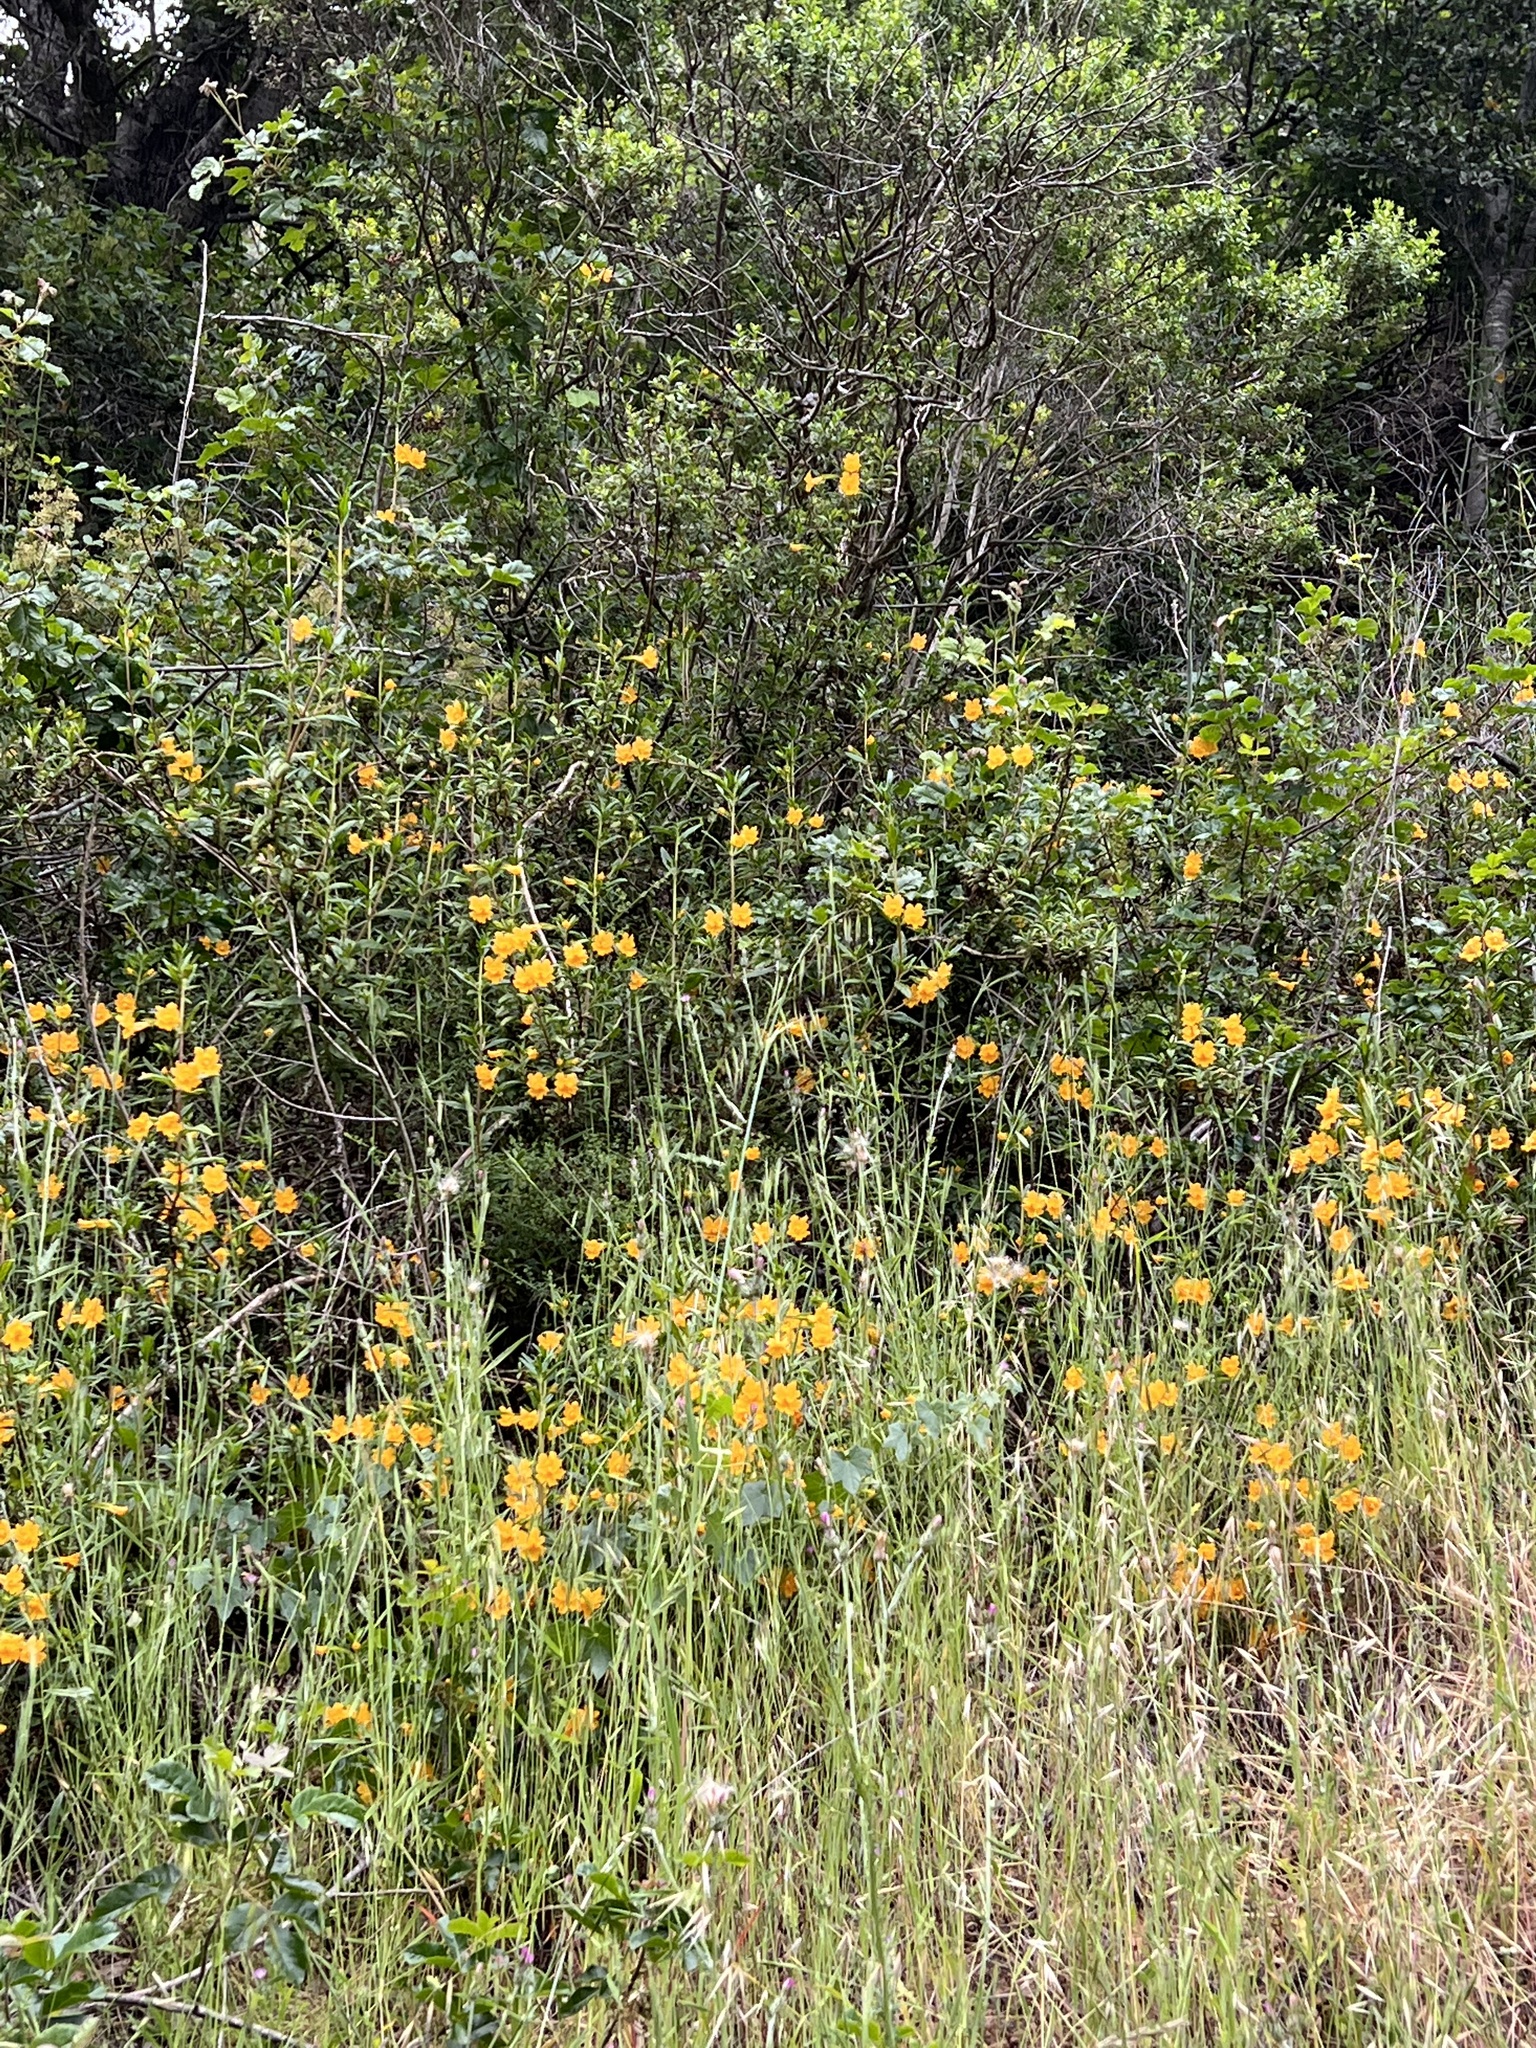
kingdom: Plantae
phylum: Tracheophyta
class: Magnoliopsida
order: Lamiales
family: Phrymaceae
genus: Diplacus
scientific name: Diplacus aurantiacus
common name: Bush monkey-flower
